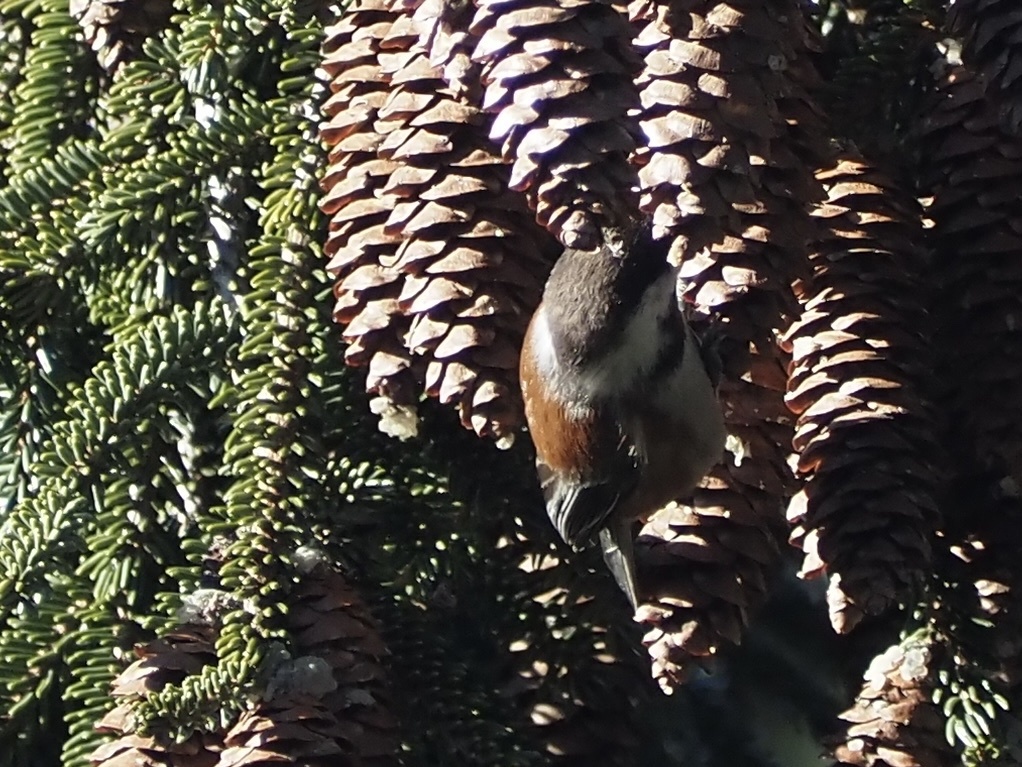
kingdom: Animalia
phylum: Chordata
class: Aves
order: Passeriformes
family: Paridae
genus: Poecile
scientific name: Poecile rufescens
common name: Chestnut-backed chickadee
